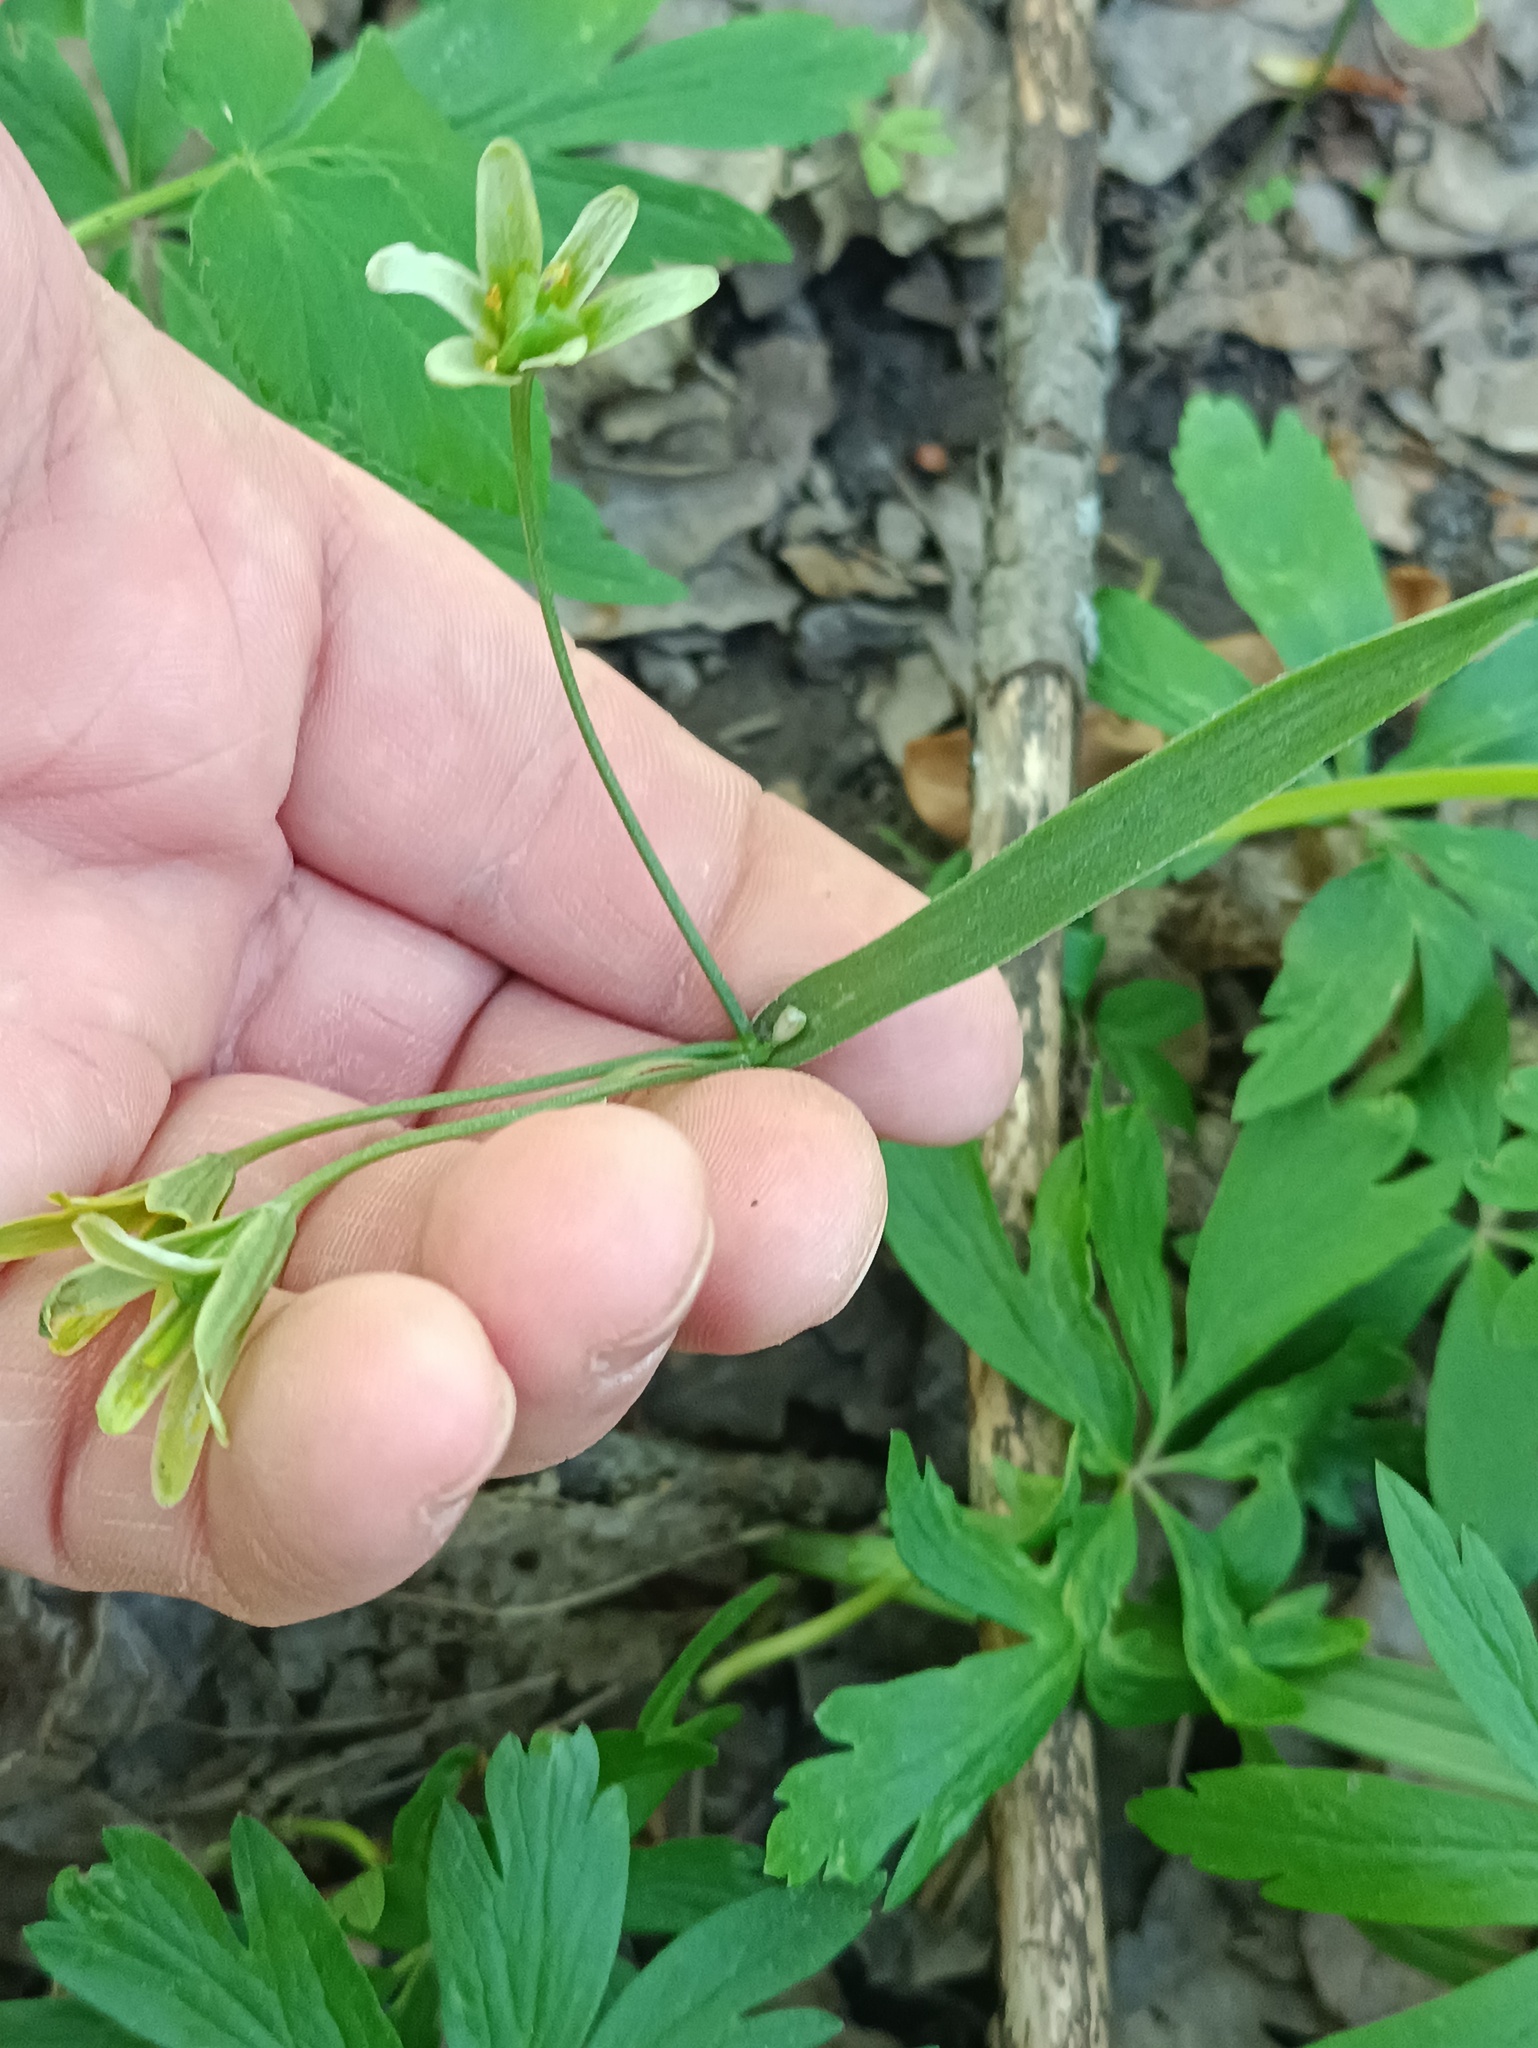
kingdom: Plantae
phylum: Tracheophyta
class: Liliopsida
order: Liliales
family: Liliaceae
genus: Gagea
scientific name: Gagea lutea
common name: Yellow star-of-bethlehem
